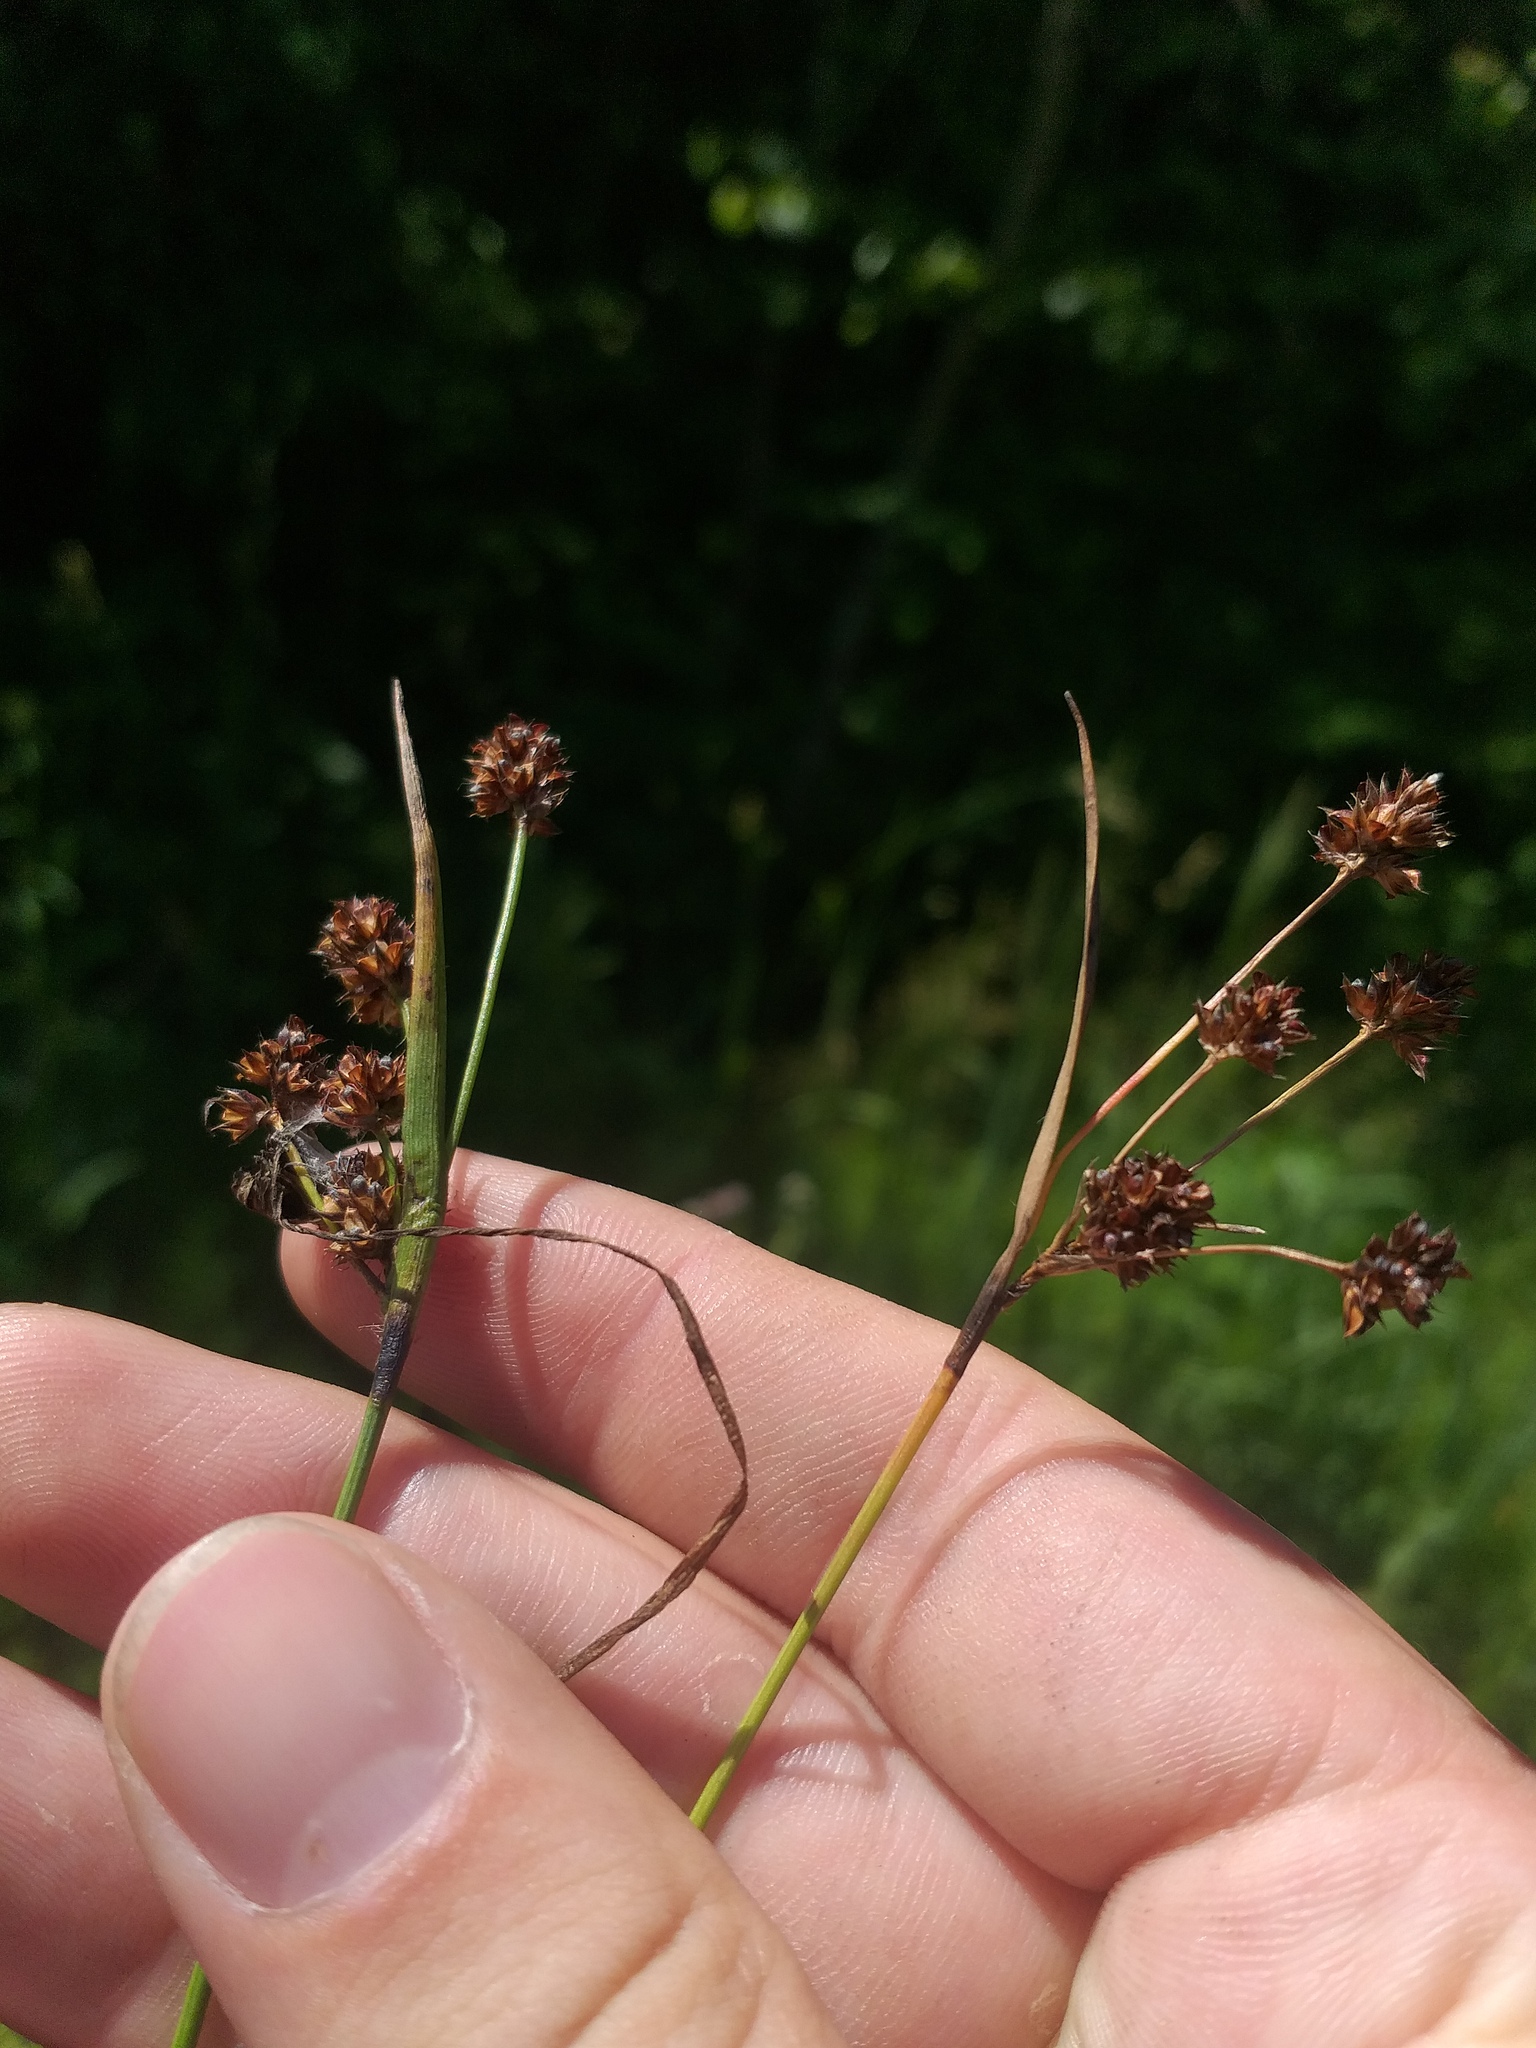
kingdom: Plantae
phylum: Tracheophyta
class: Liliopsida
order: Poales
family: Juncaceae
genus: Luzula
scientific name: Luzula multiflora
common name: Heath wood-rush
